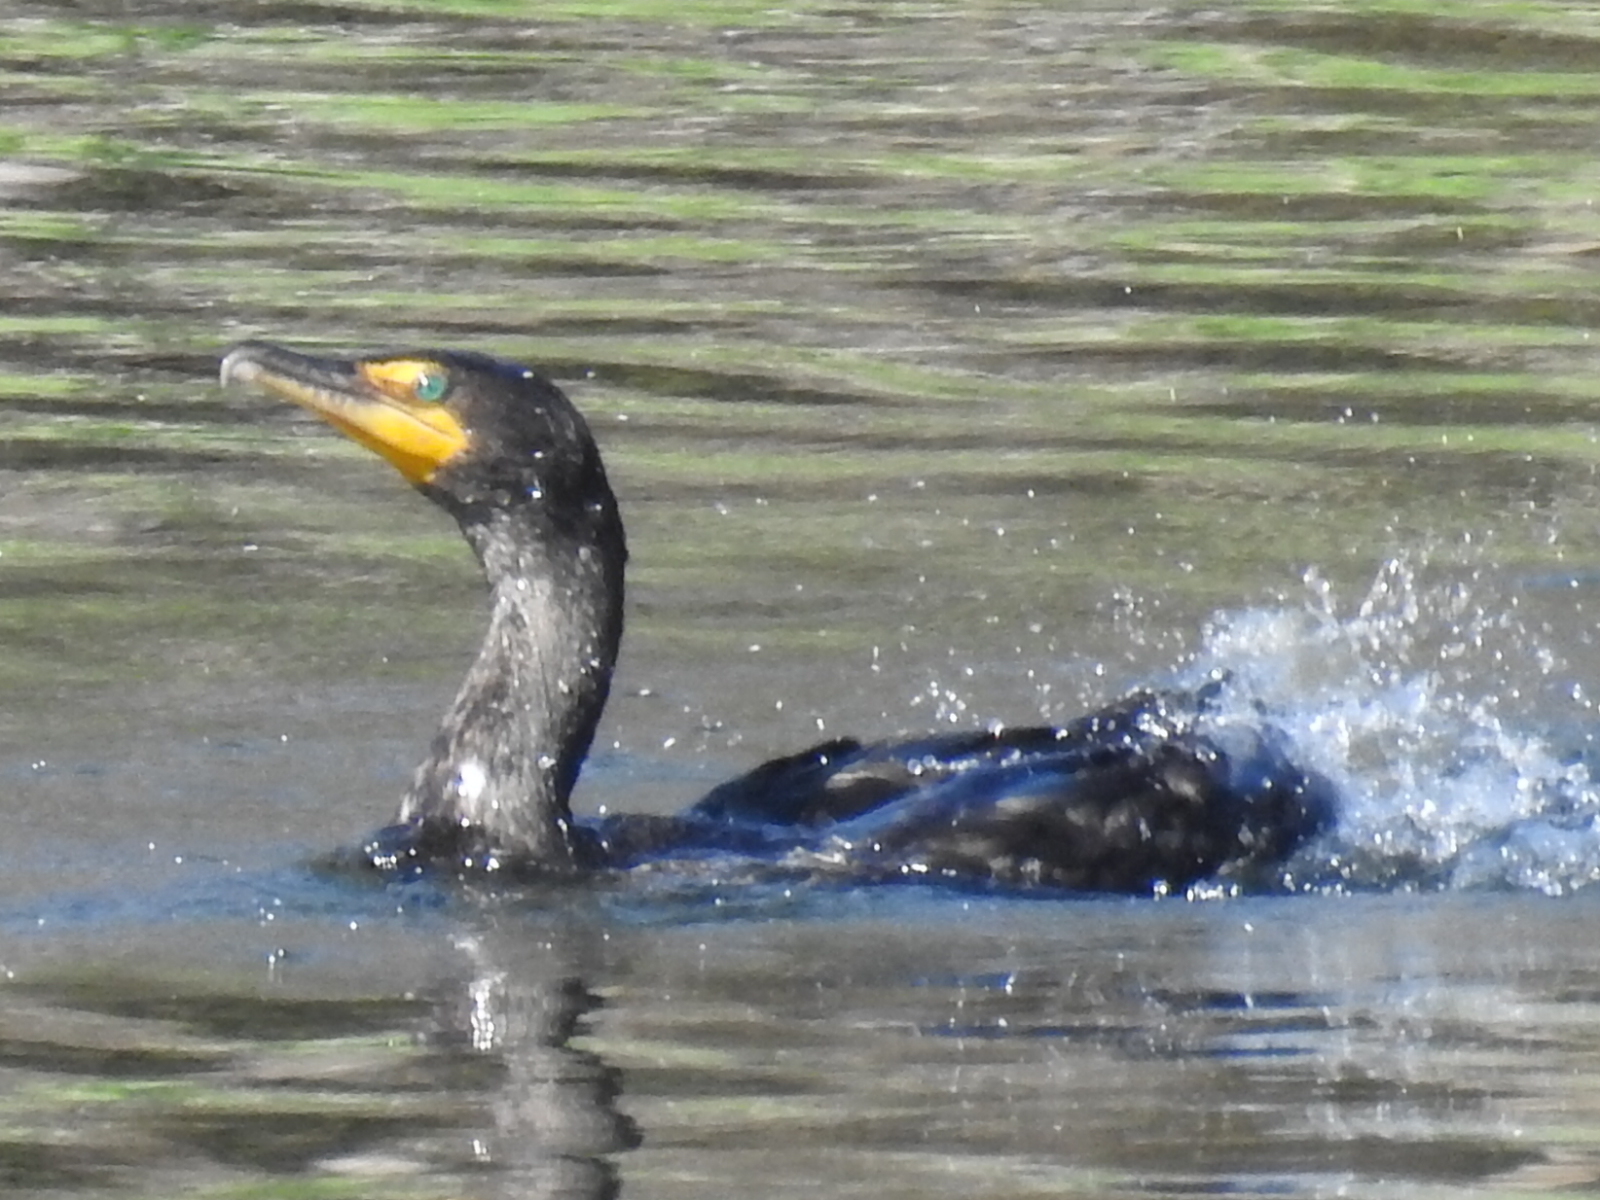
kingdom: Animalia
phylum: Chordata
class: Aves
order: Suliformes
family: Phalacrocoracidae
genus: Phalacrocorax
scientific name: Phalacrocorax auritus
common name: Double-crested cormorant
